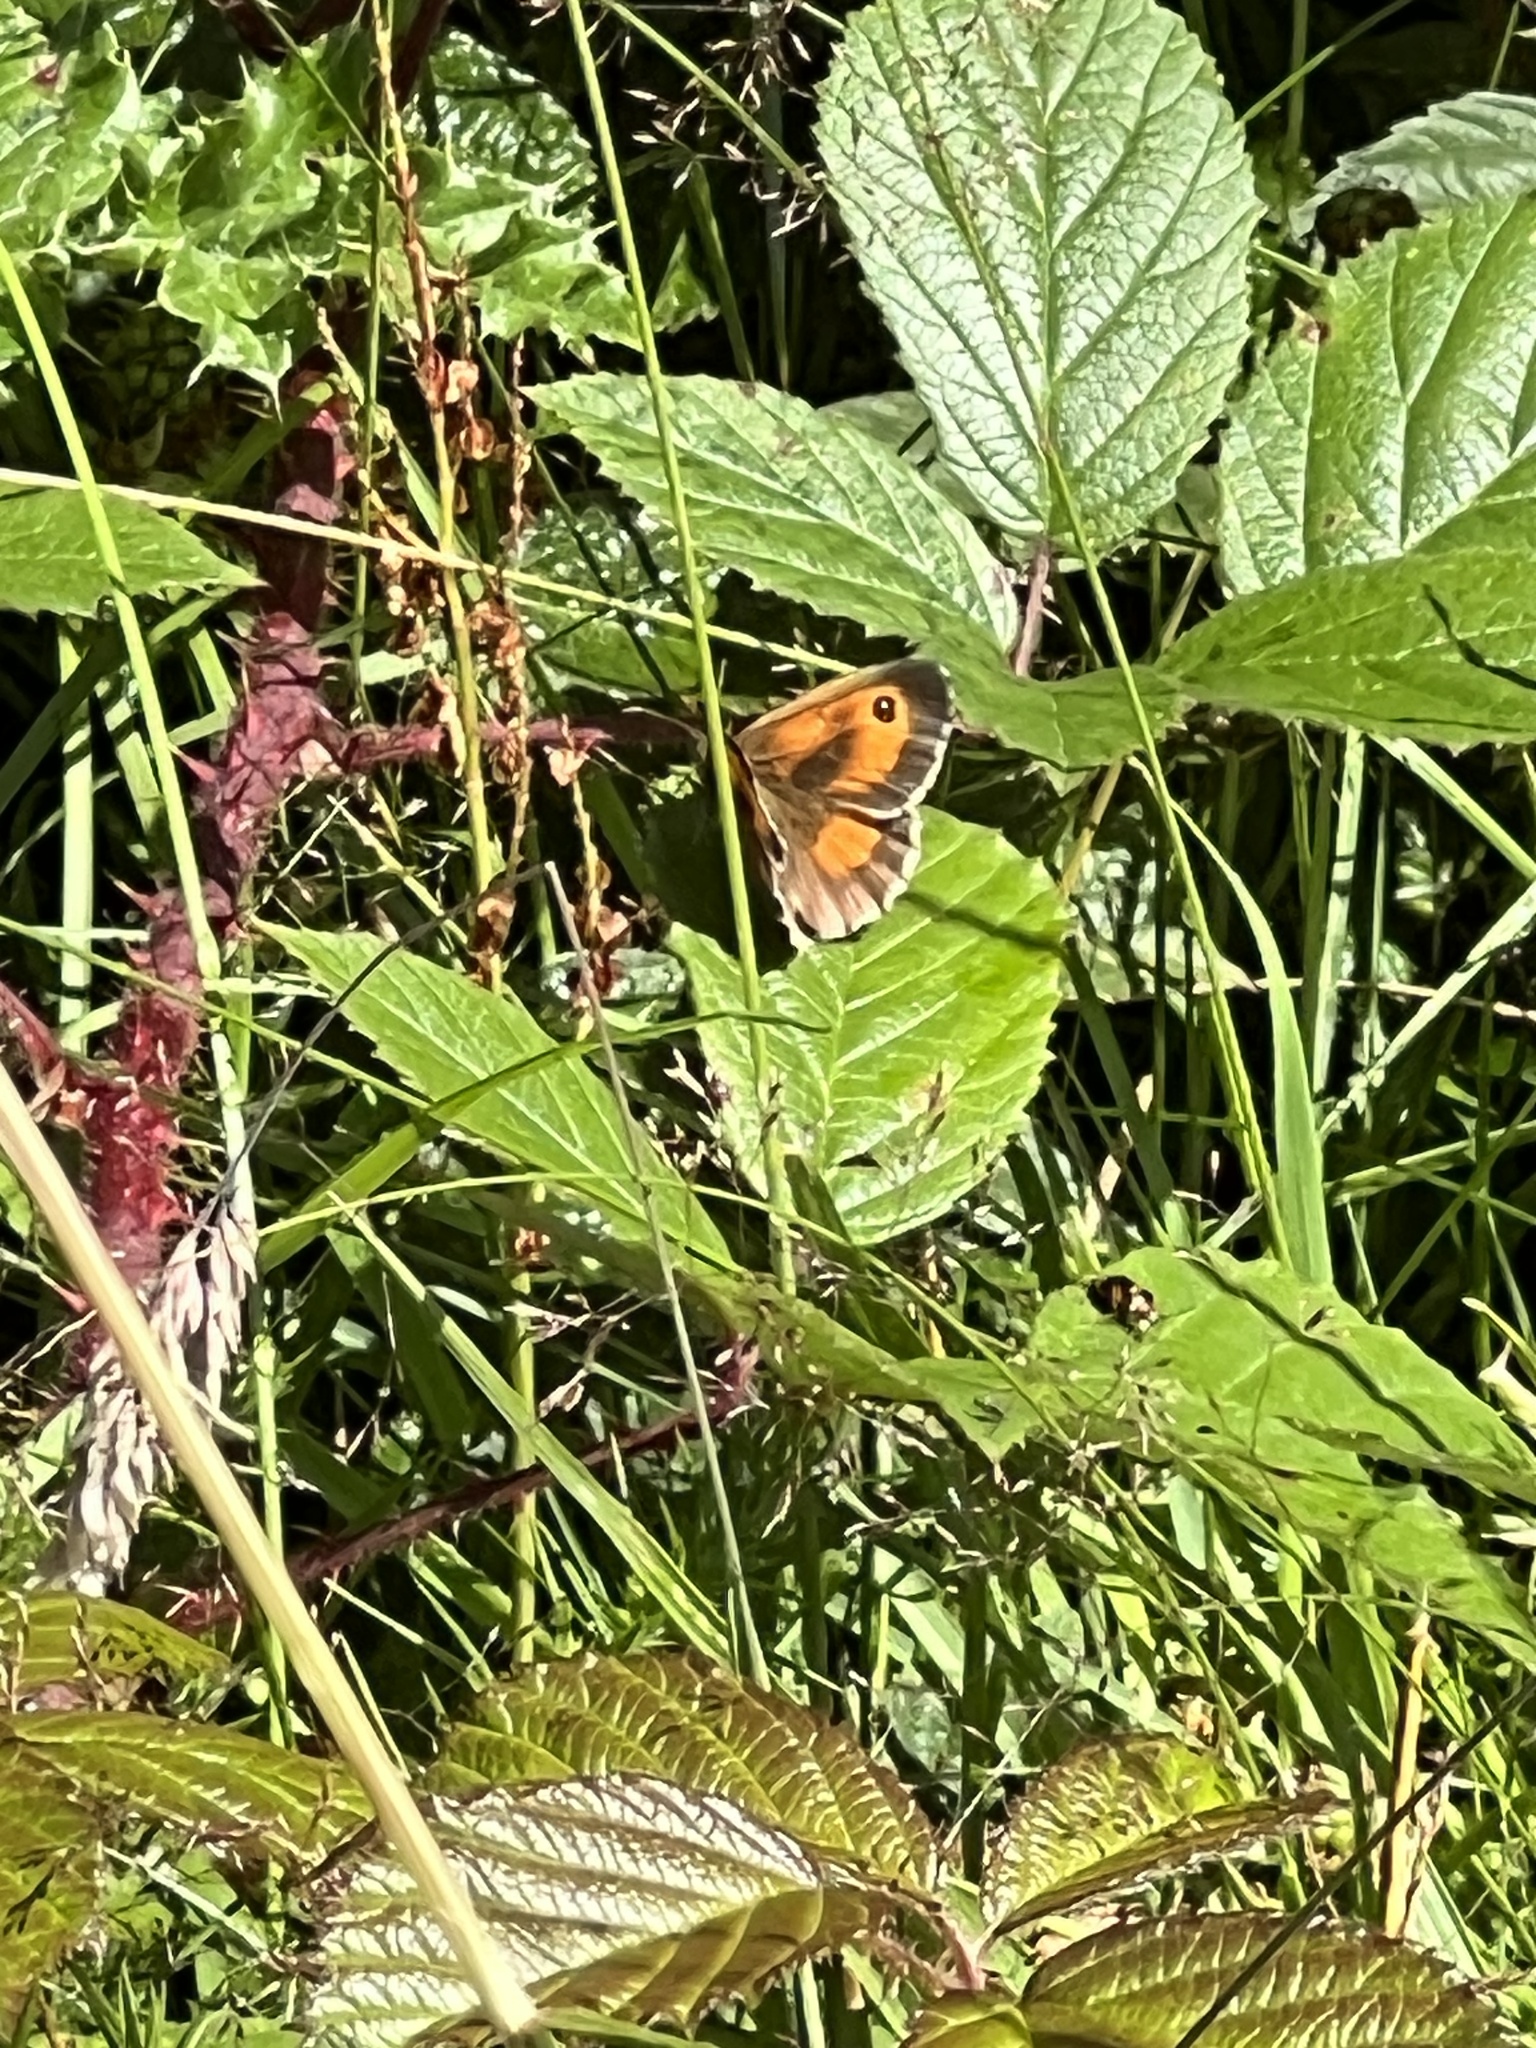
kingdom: Animalia
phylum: Arthropoda
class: Insecta
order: Lepidoptera
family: Nymphalidae
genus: Pyronia
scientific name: Pyronia tithonus
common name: Gatekeeper
